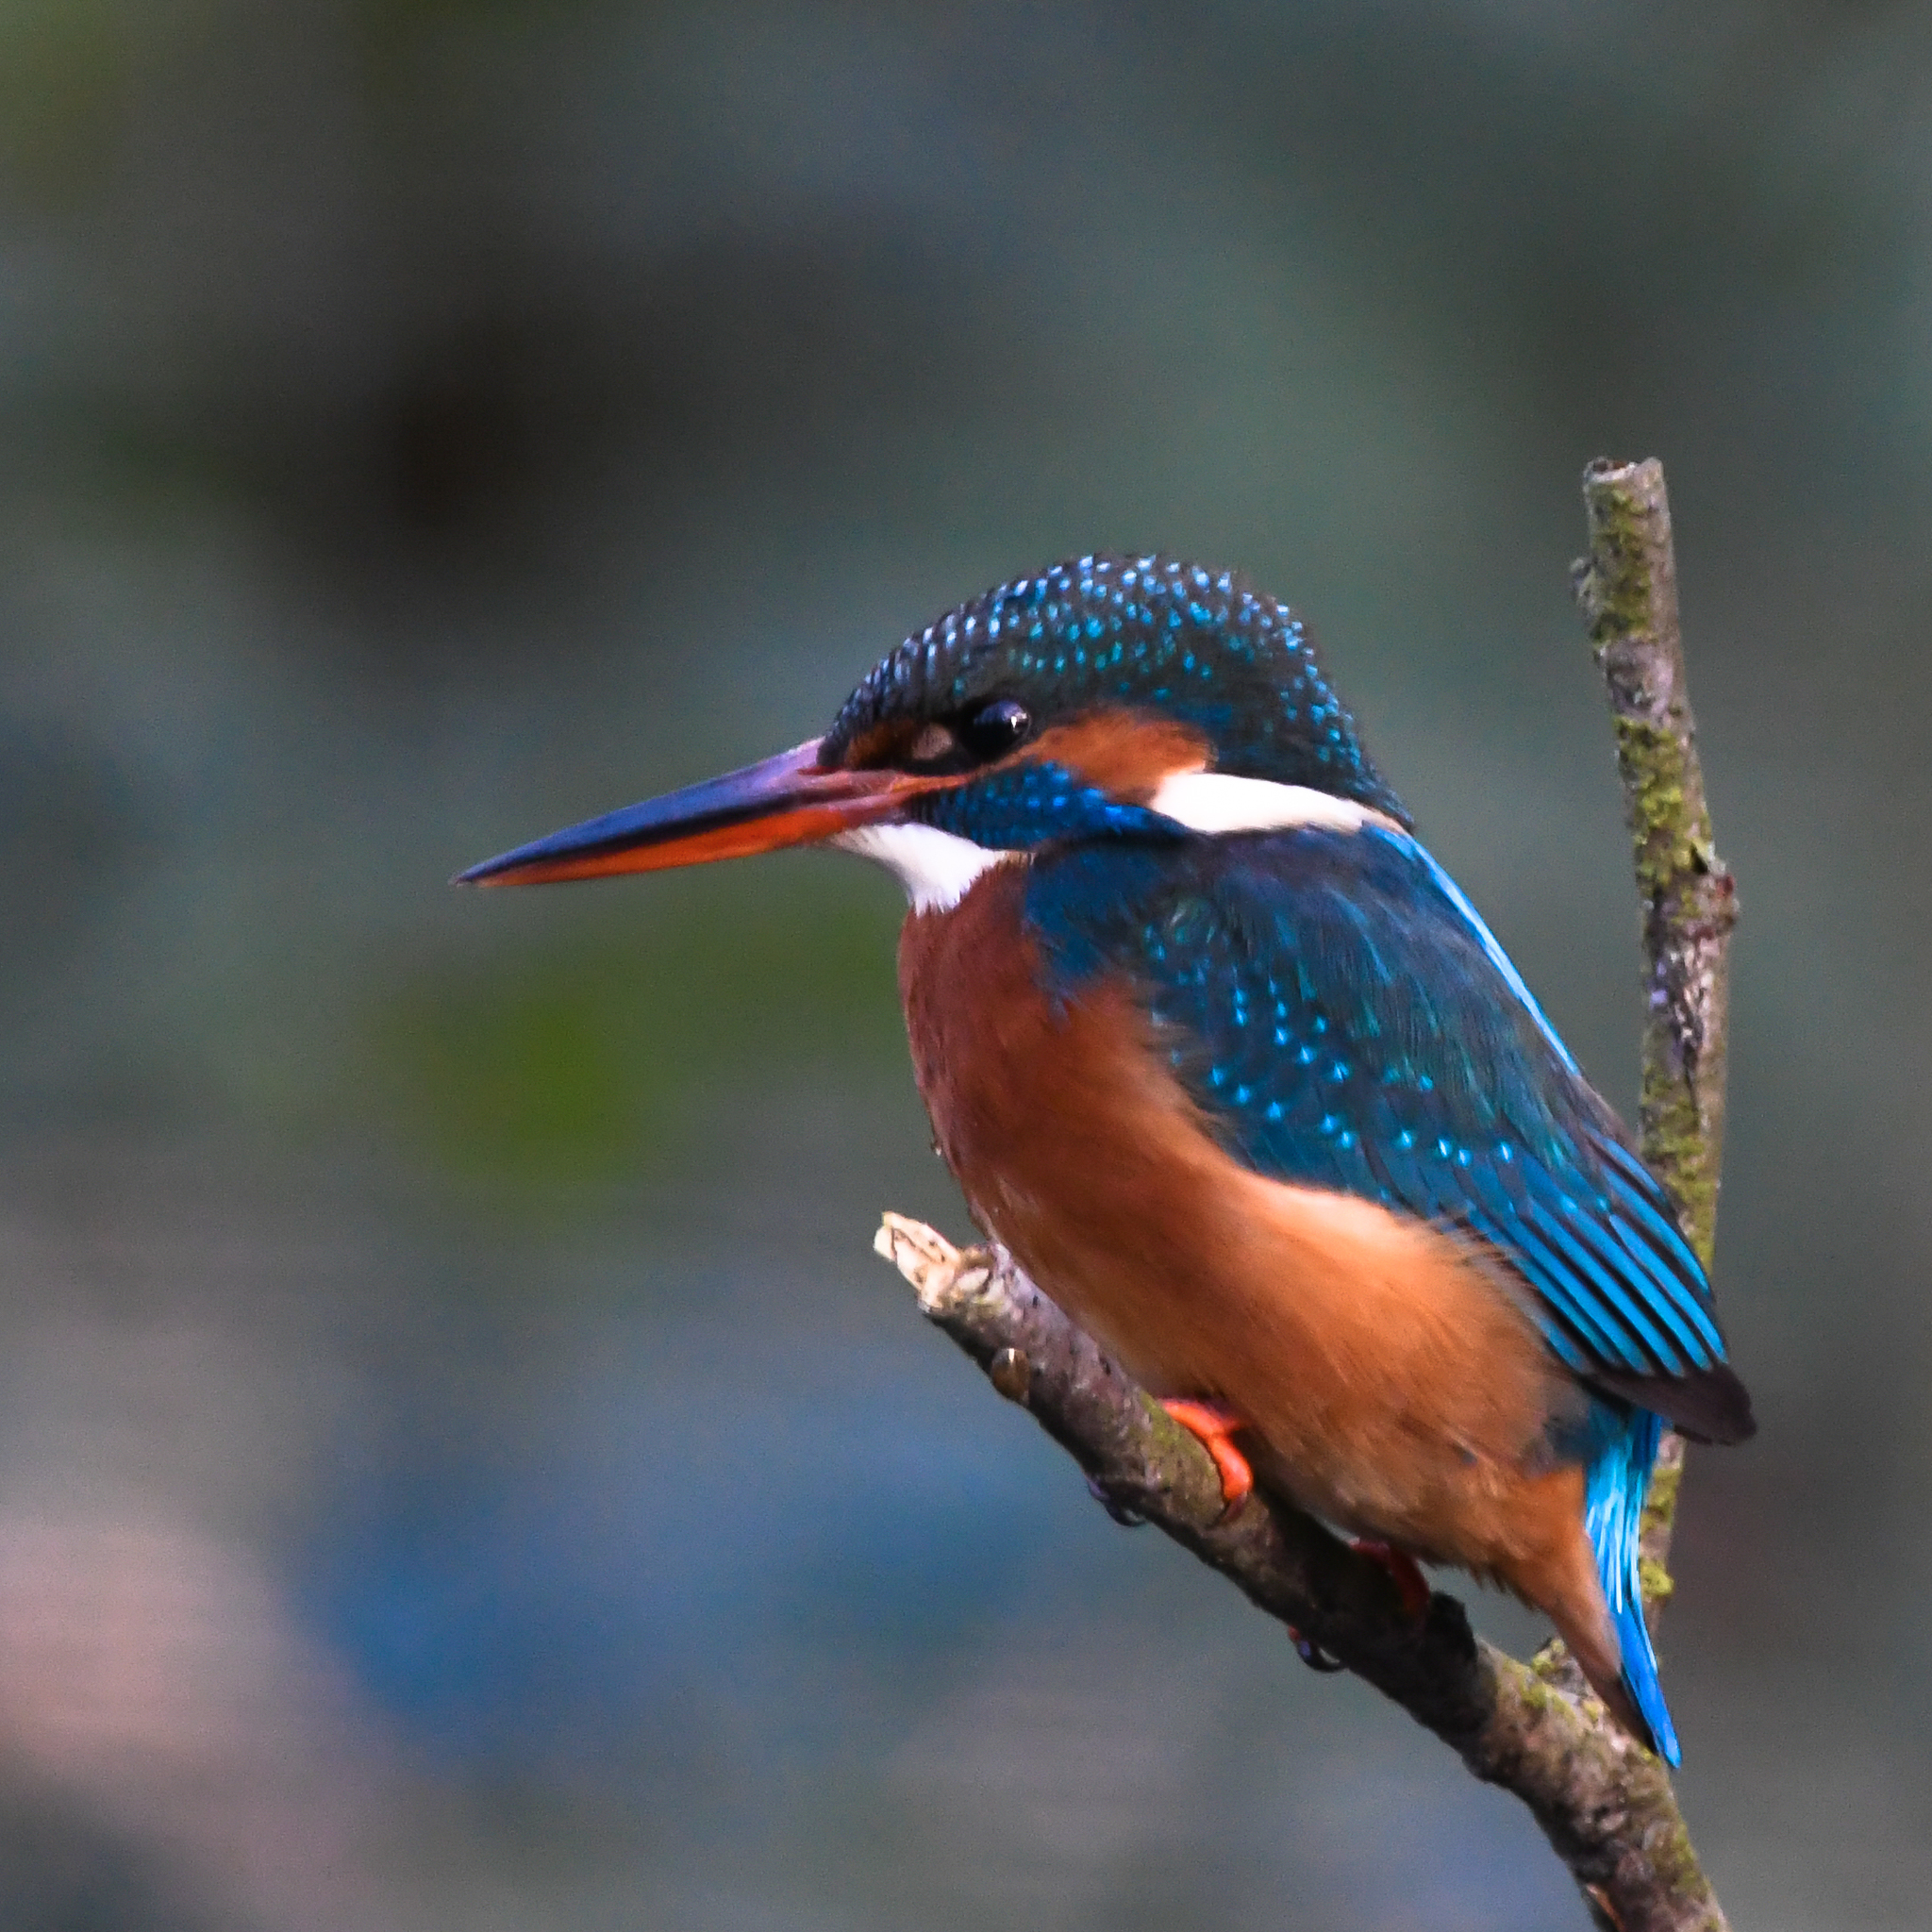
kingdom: Animalia
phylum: Chordata
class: Aves
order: Coraciiformes
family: Alcedinidae
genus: Alcedo
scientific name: Alcedo atthis
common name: Common kingfisher
